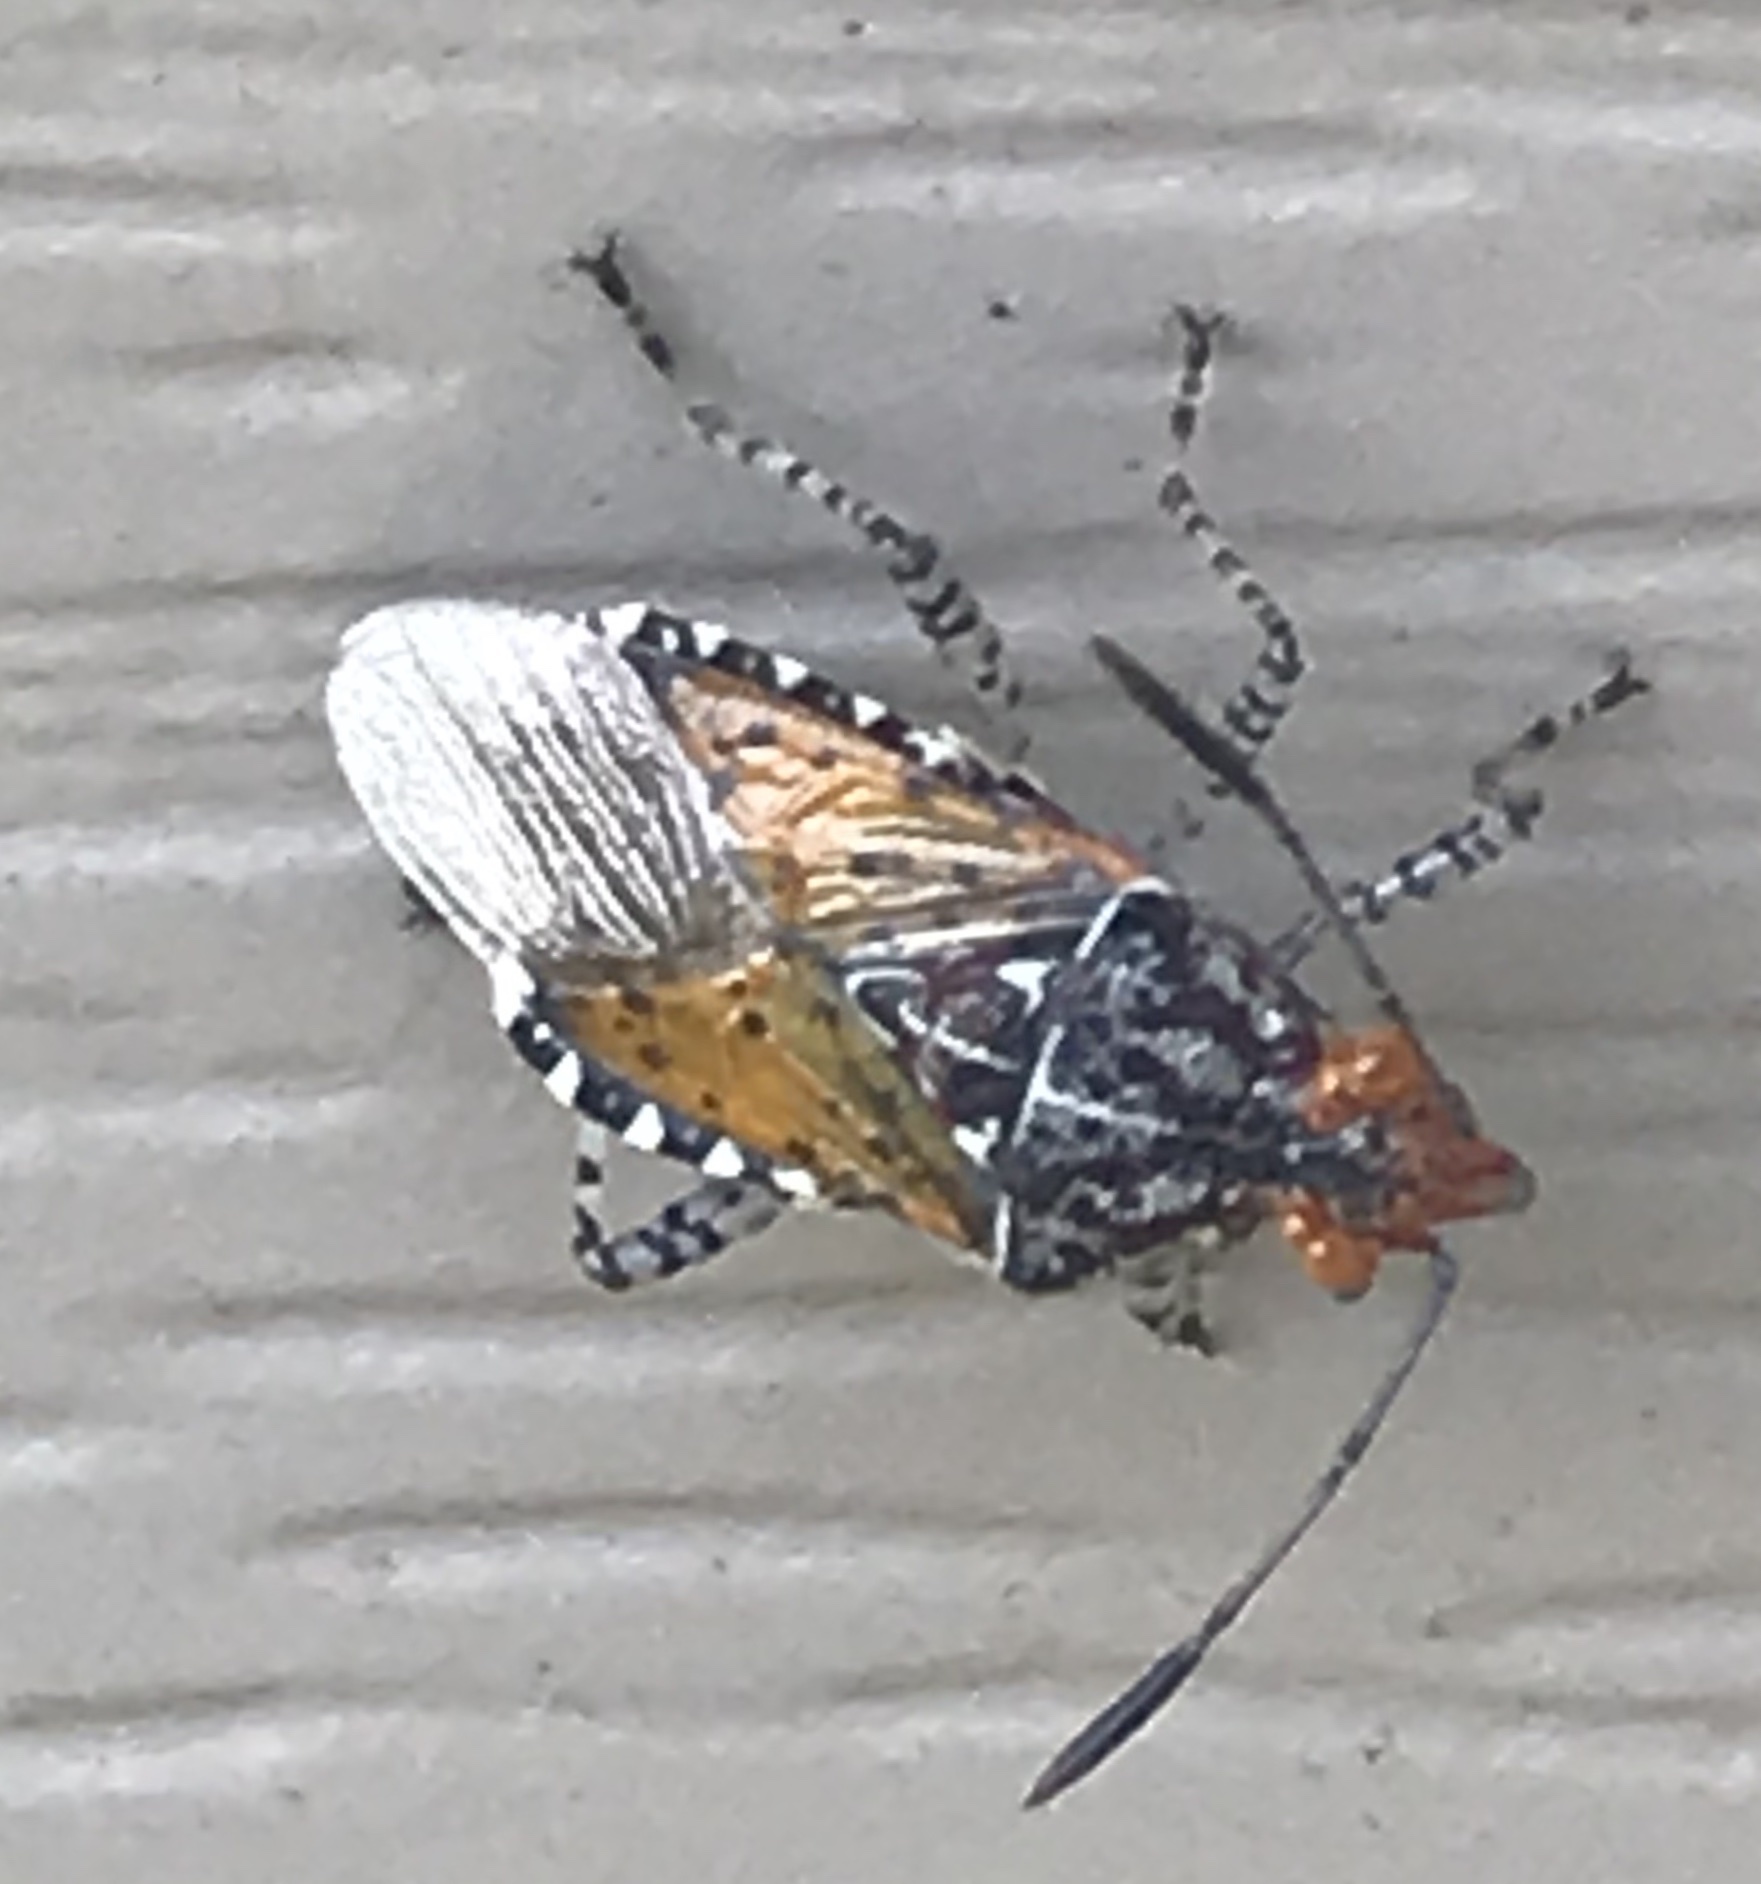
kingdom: Animalia
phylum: Arthropoda
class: Insecta
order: Hemiptera
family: Rhopalidae
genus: Niesthrea
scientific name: Niesthrea louisianica
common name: Scentless plant bug
